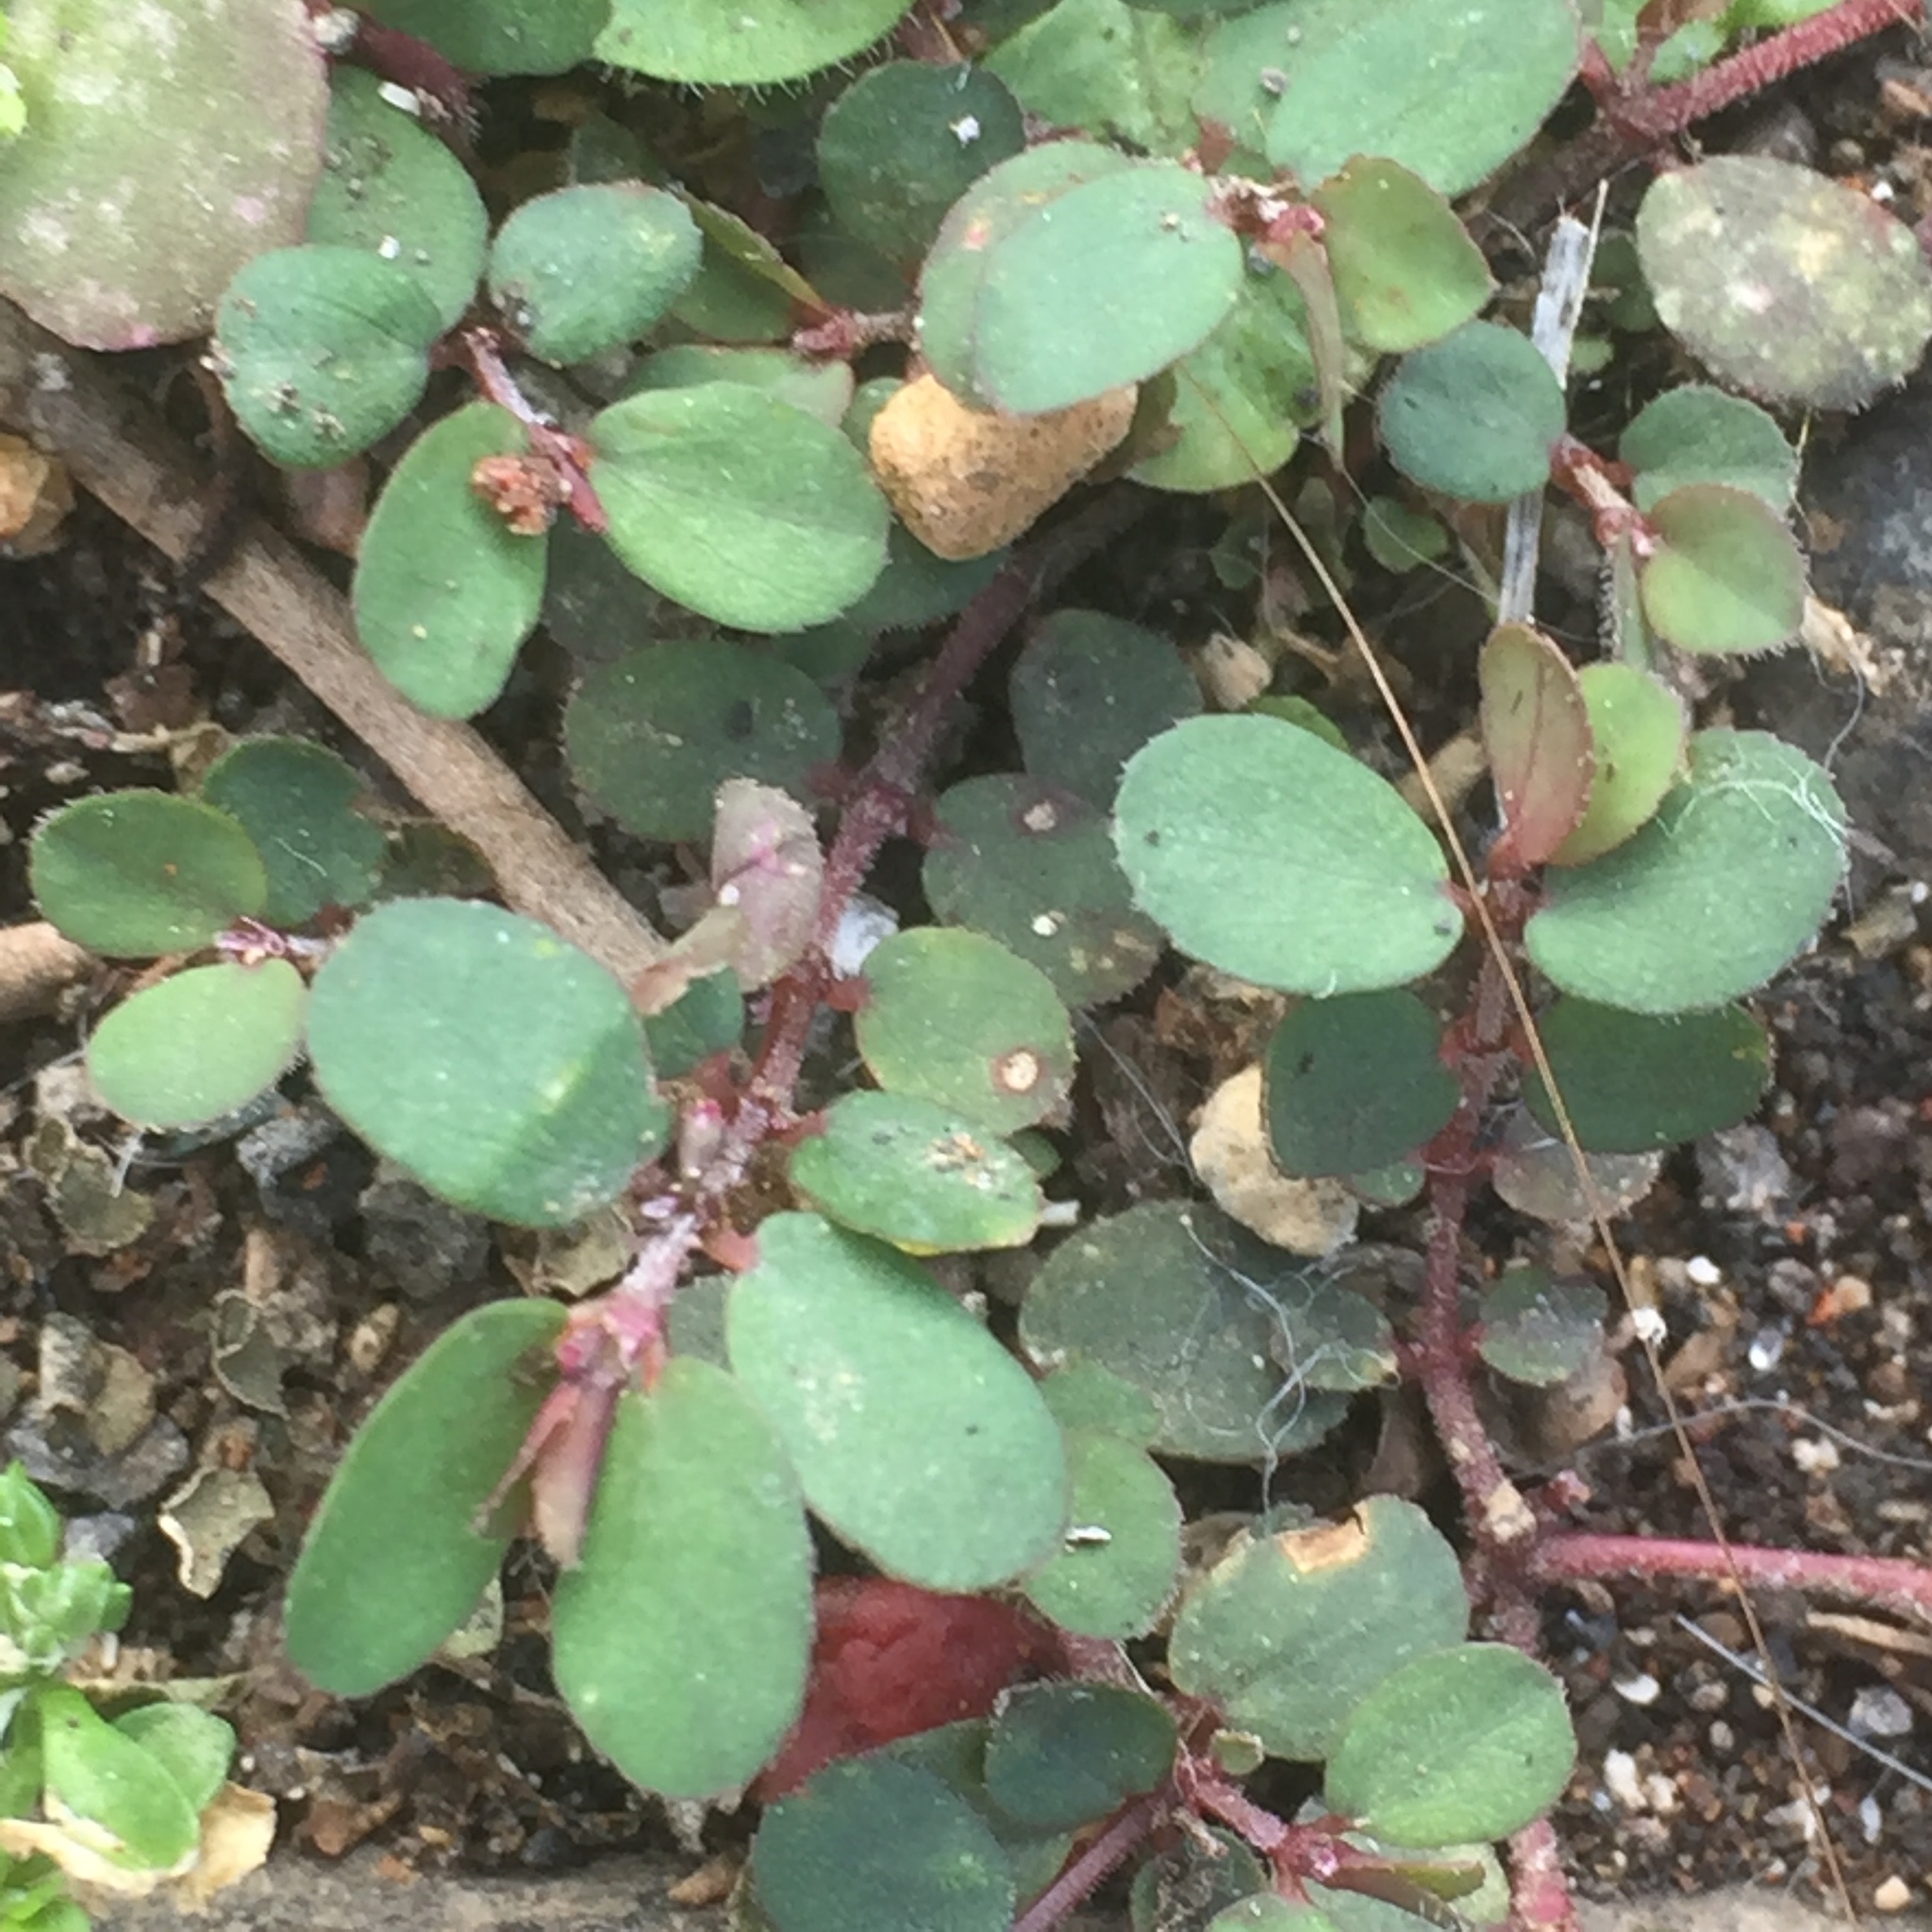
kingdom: Plantae
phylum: Tracheophyta
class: Magnoliopsida
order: Malpighiales
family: Euphorbiaceae
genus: Euphorbia
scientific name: Euphorbia prostrata
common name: Prostrate sandmat
